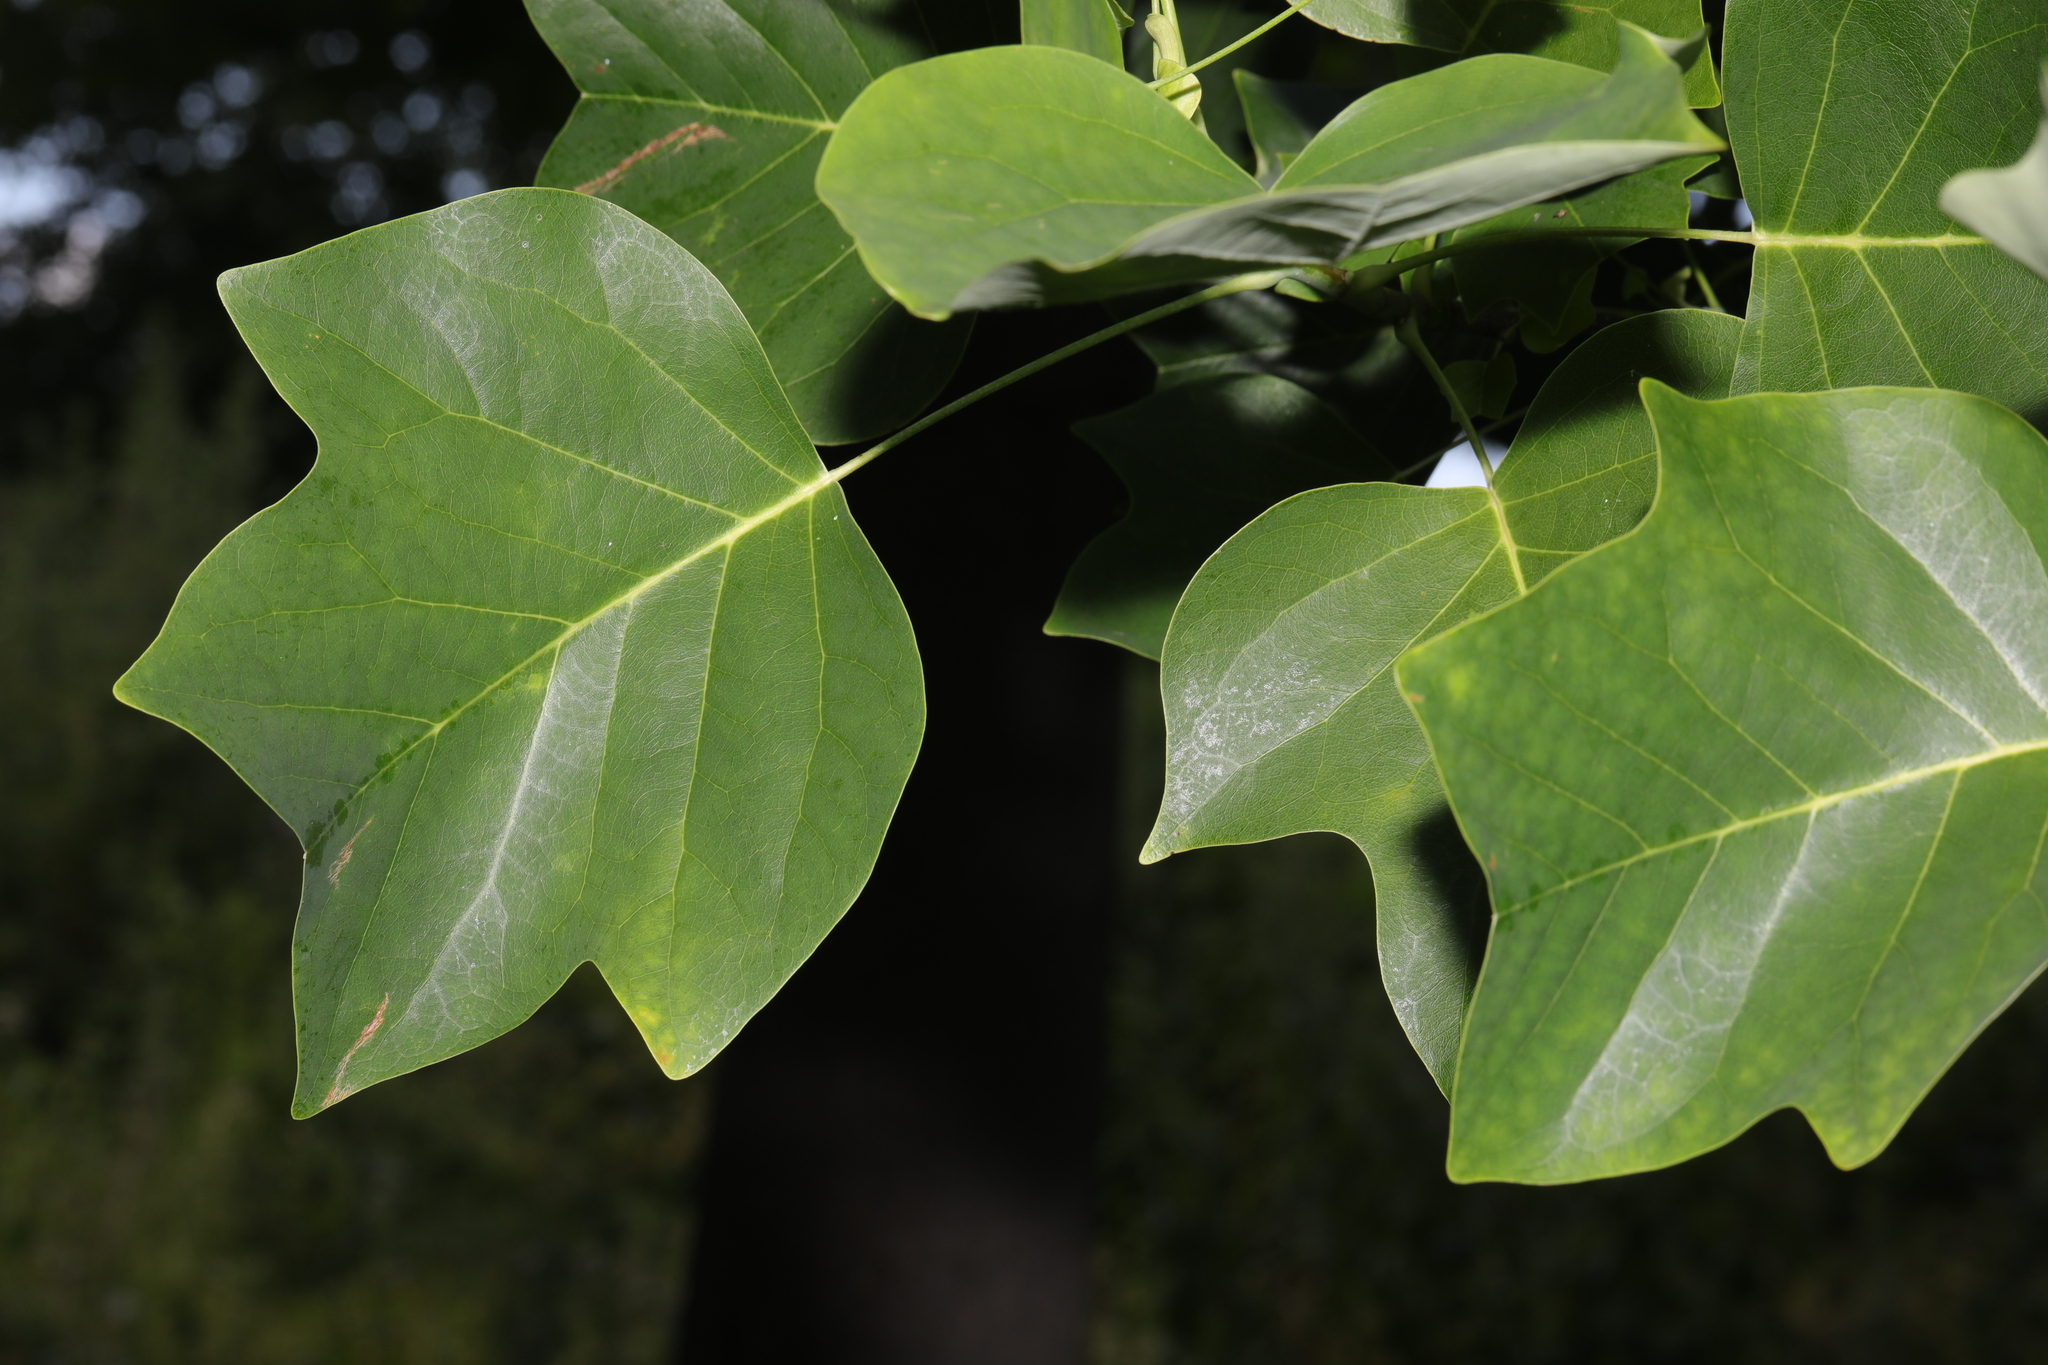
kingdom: Plantae
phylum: Tracheophyta
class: Magnoliopsida
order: Magnoliales
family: Magnoliaceae
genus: Liriodendron
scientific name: Liriodendron tulipifera
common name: Tulip tree
